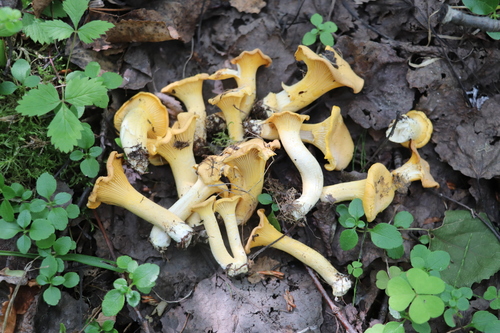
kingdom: Fungi
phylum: Basidiomycota
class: Agaricomycetes
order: Cantharellales
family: Hydnaceae
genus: Cantharellus
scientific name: Cantharellus cibarius
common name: Chanterelle
